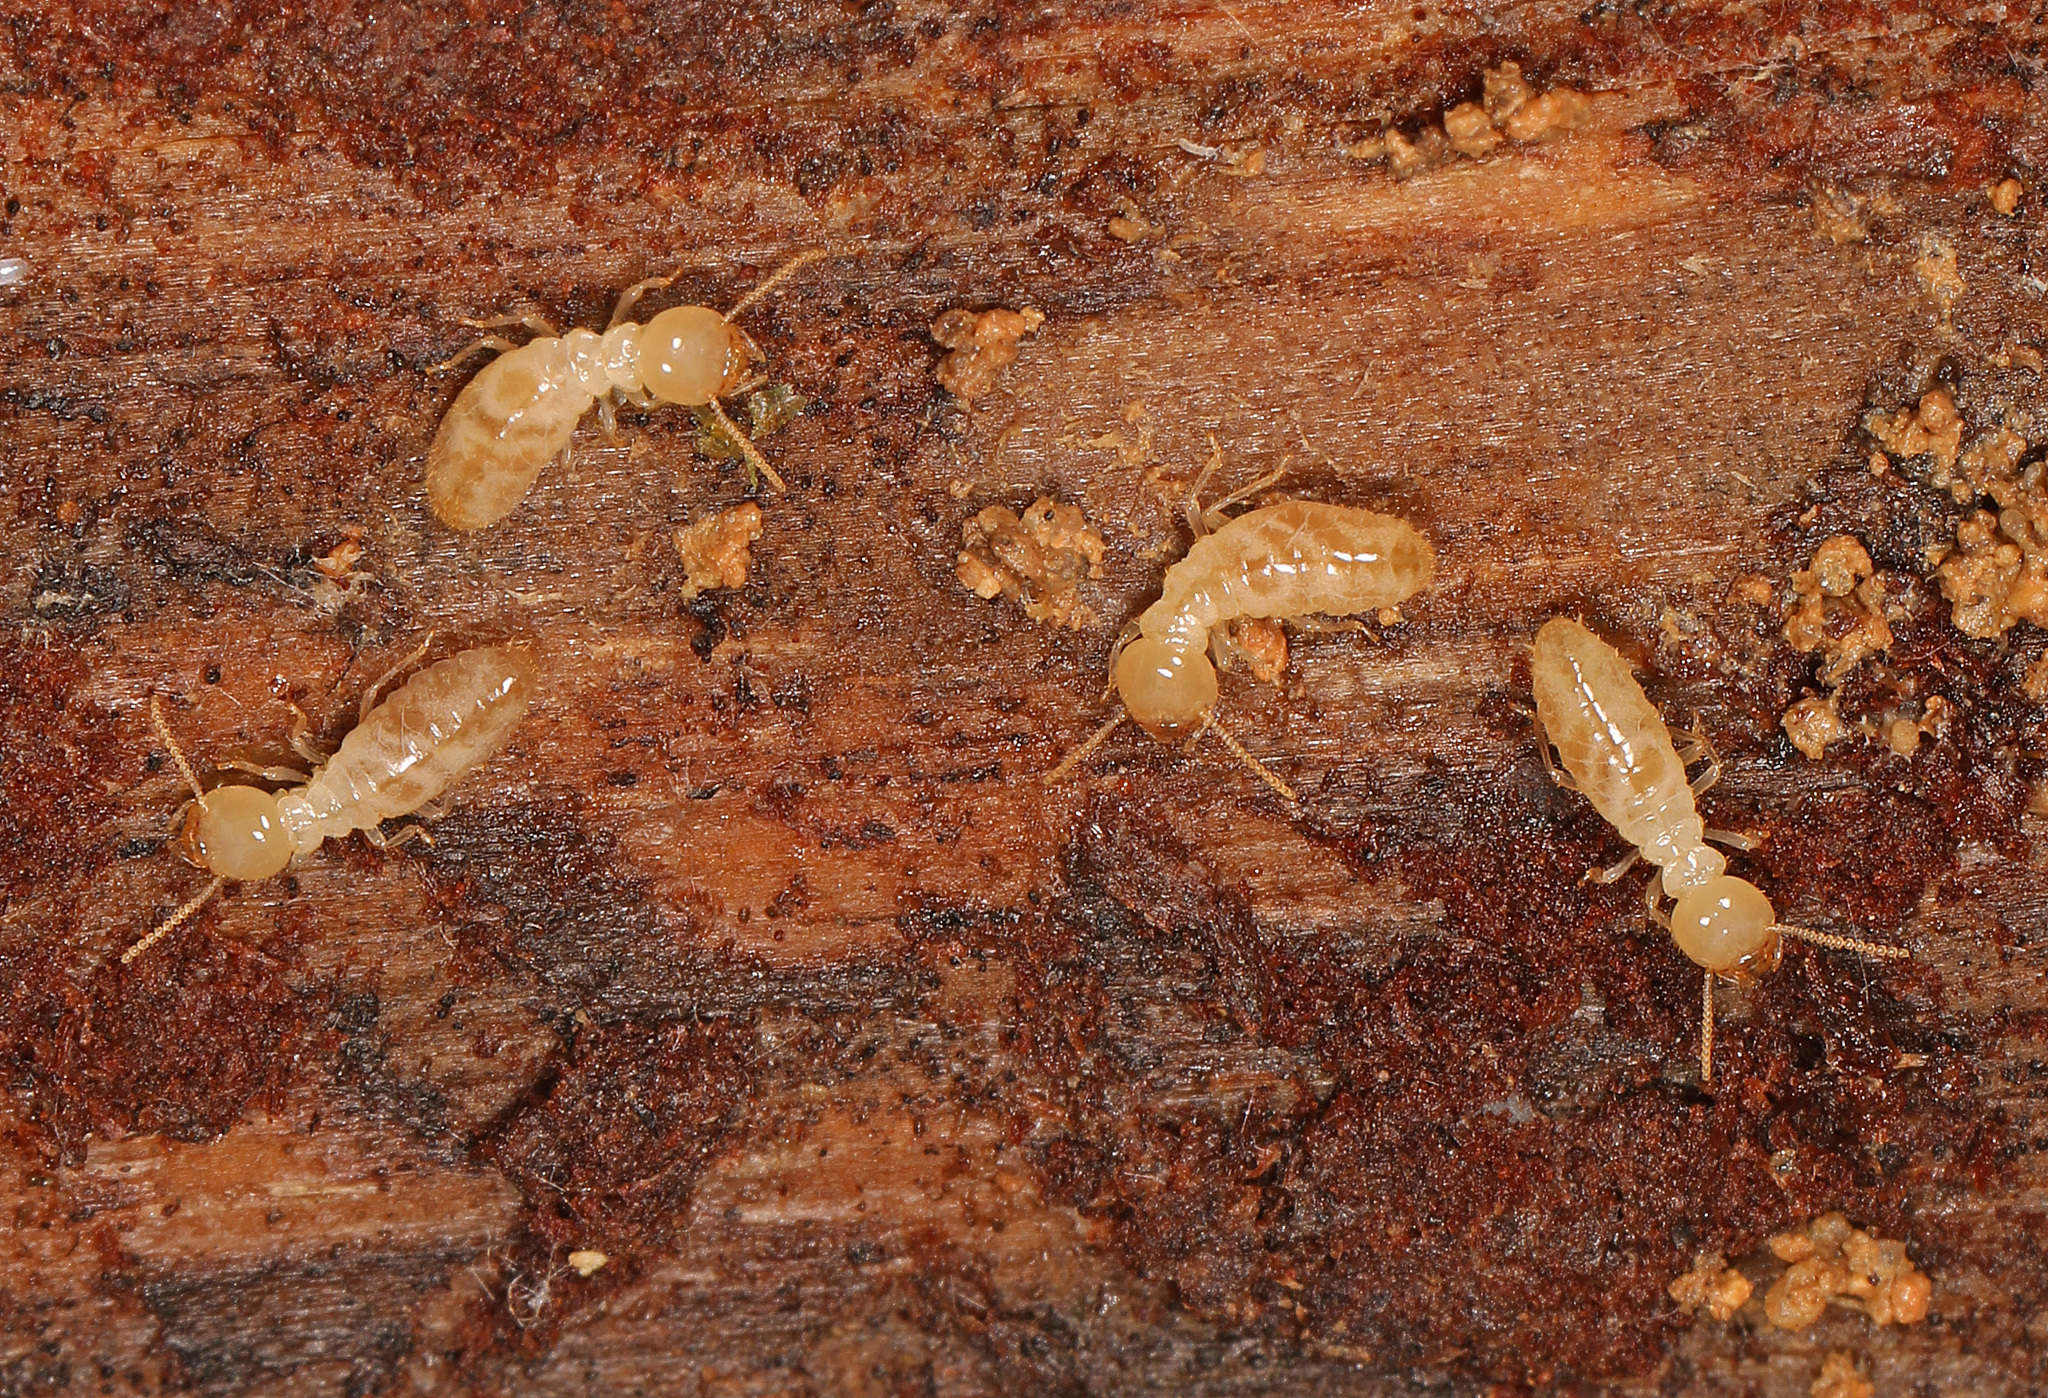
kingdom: Animalia
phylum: Arthropoda
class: Insecta
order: Blattodea
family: Rhinotermitidae
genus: Reticulitermes
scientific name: Reticulitermes flavipes
